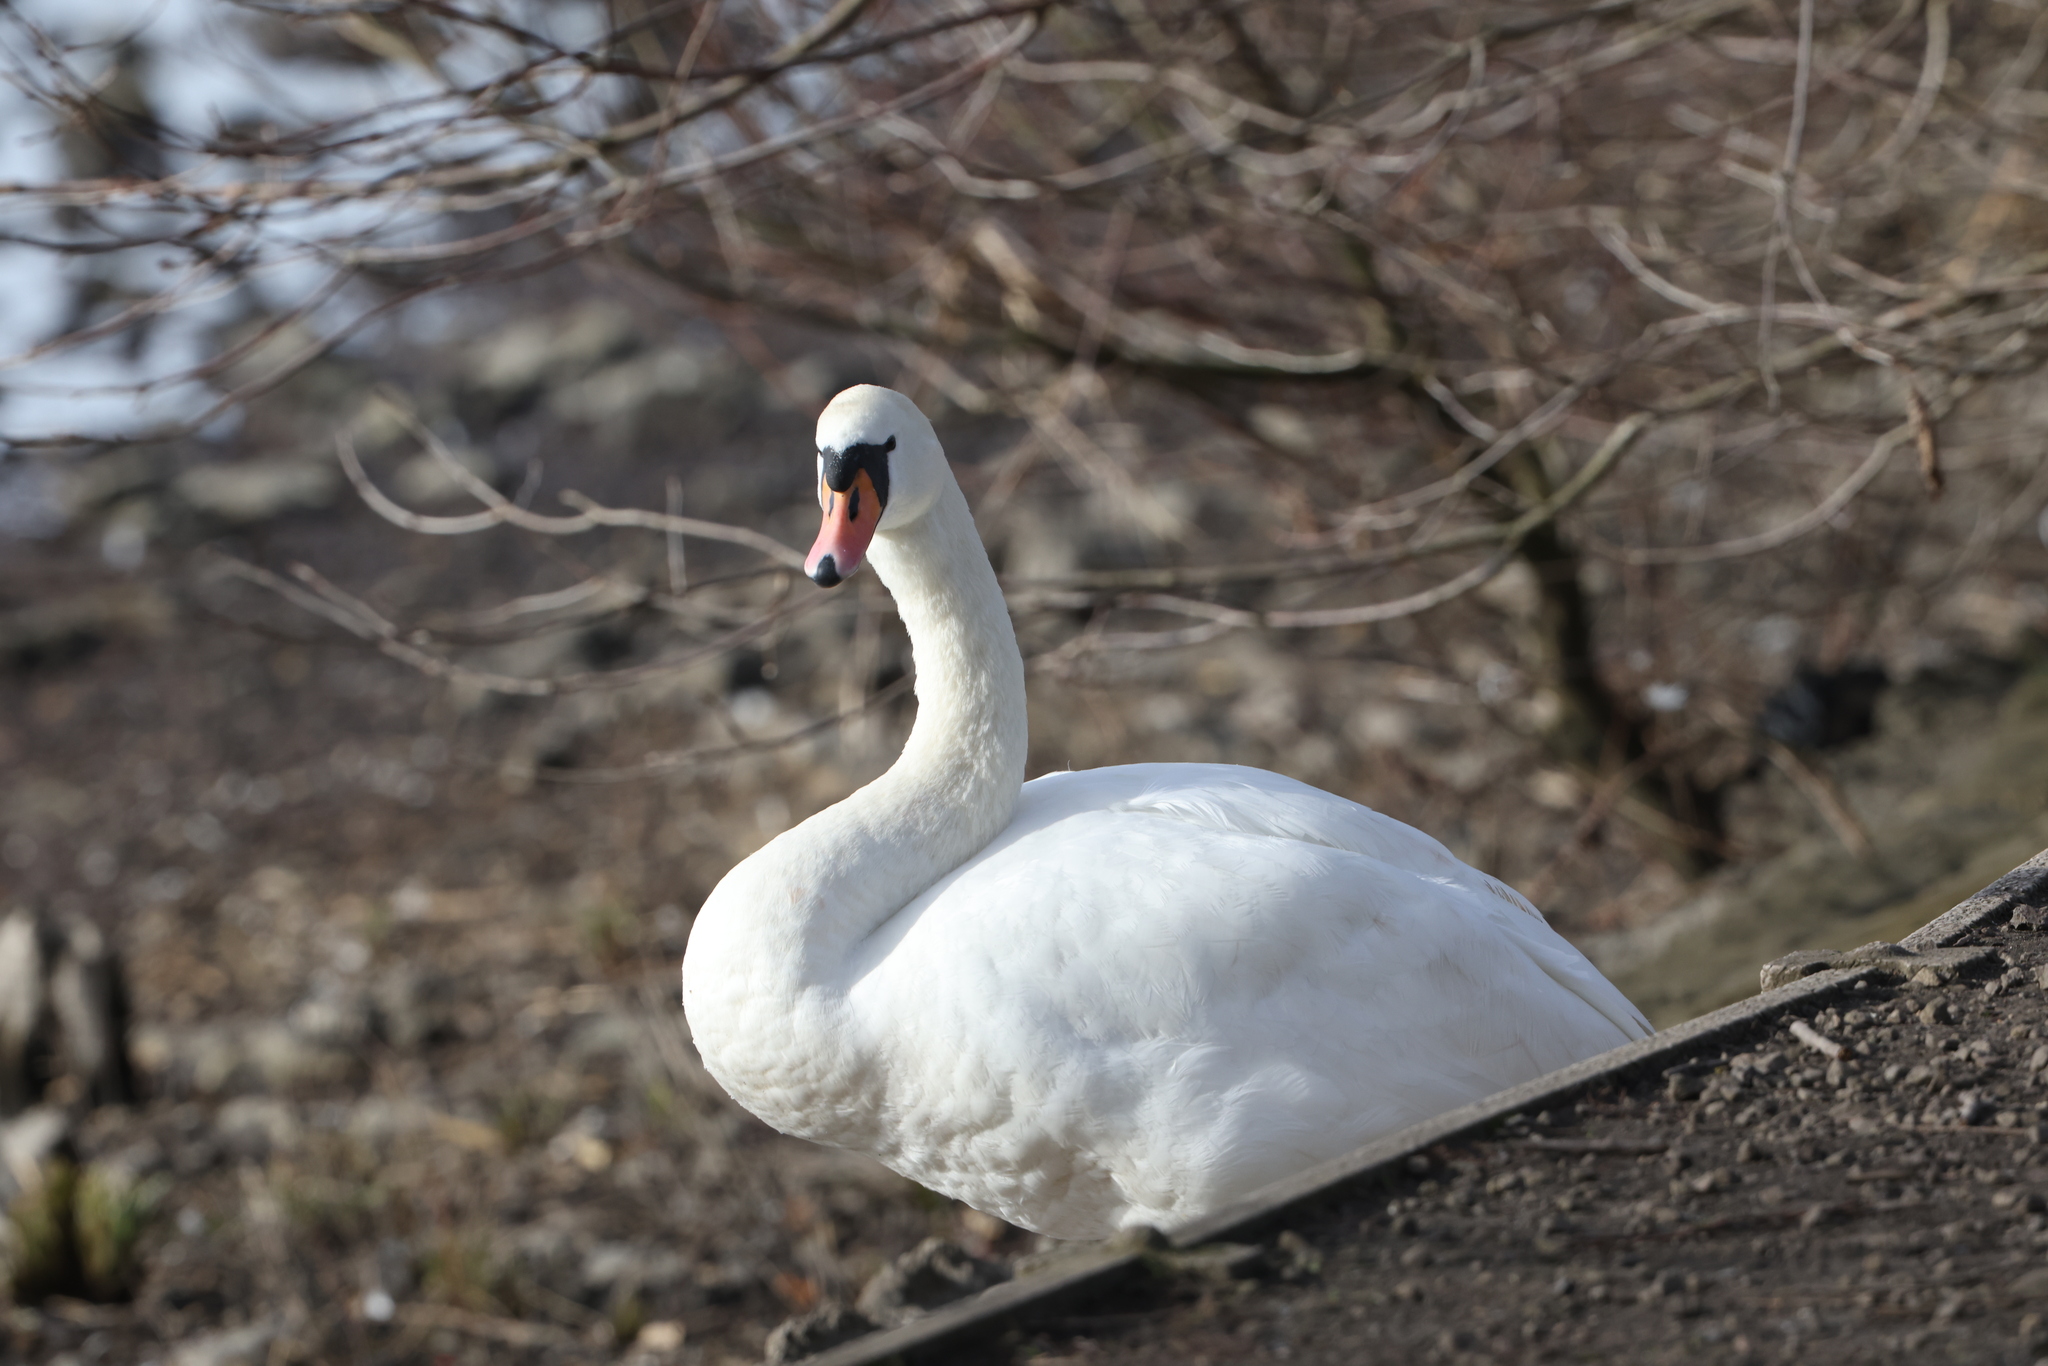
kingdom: Animalia
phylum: Chordata
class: Aves
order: Anseriformes
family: Anatidae
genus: Cygnus
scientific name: Cygnus olor
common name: Mute swan
